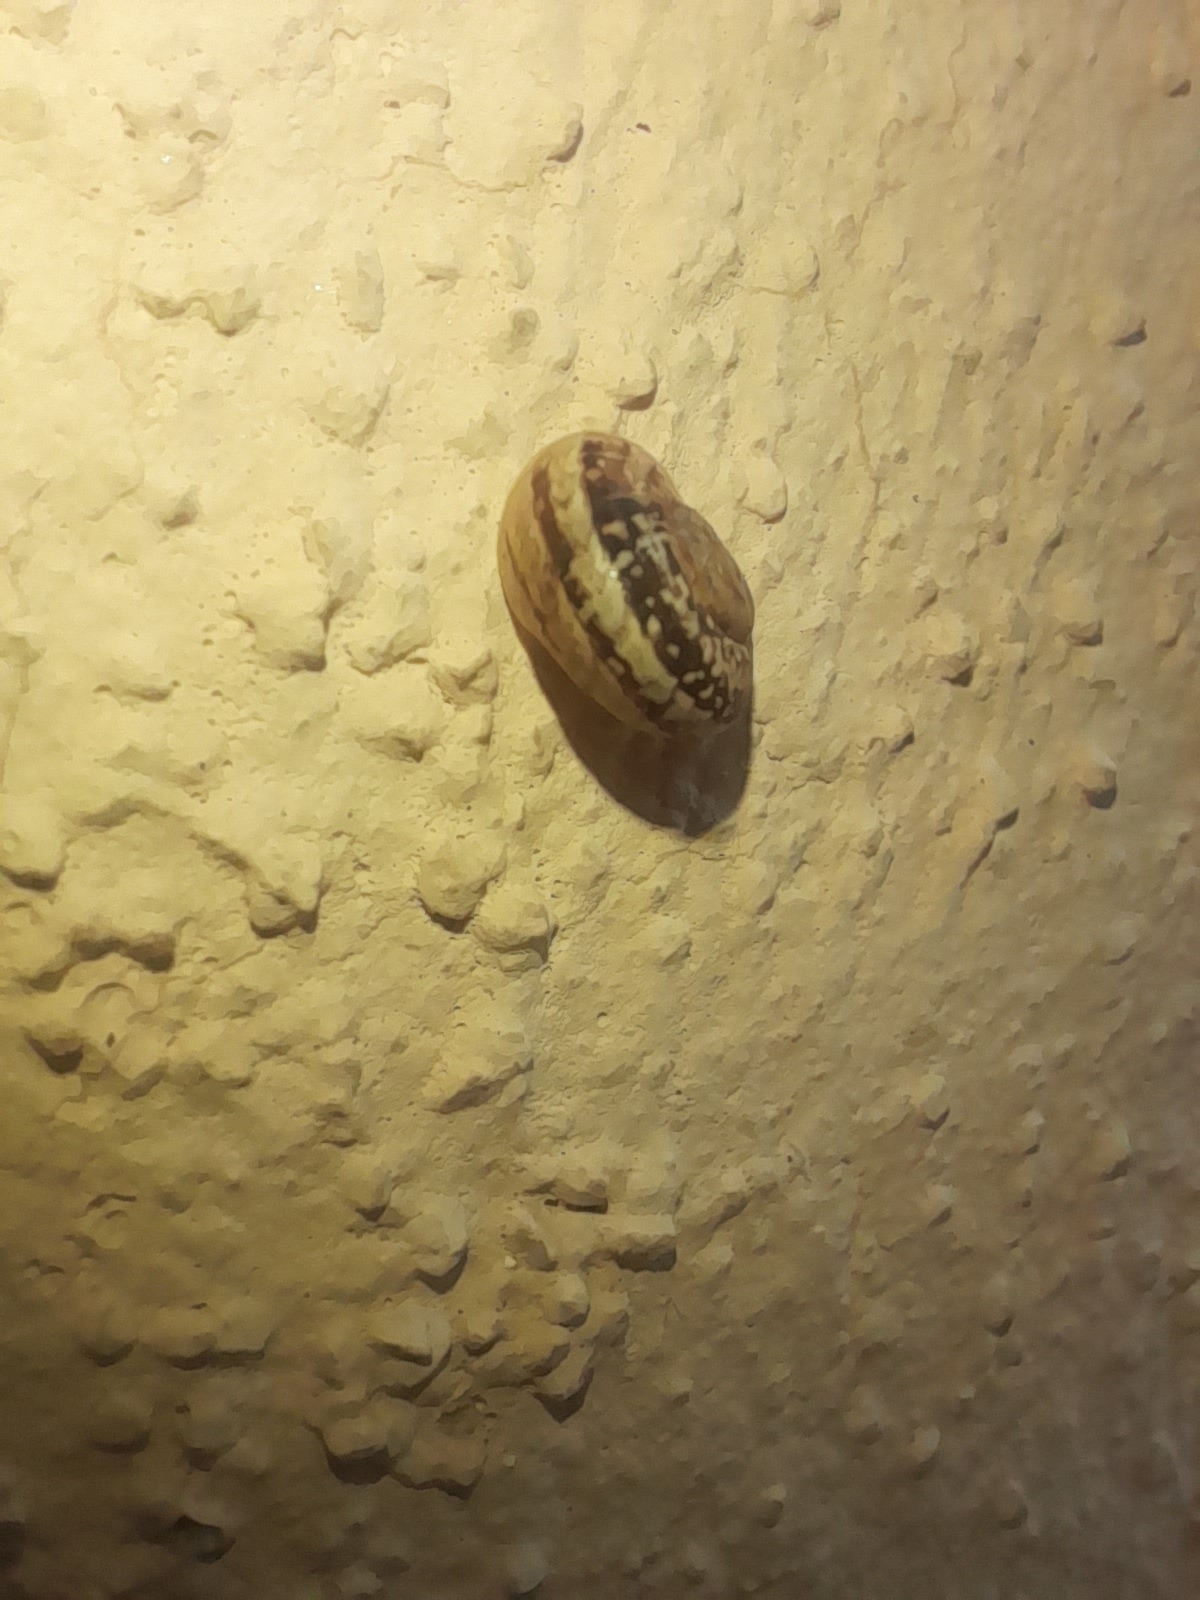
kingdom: Animalia
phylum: Mollusca
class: Gastropoda
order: Stylommatophora
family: Helicidae
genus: Eobania
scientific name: Eobania vermiculata
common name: Chocolateband snail
